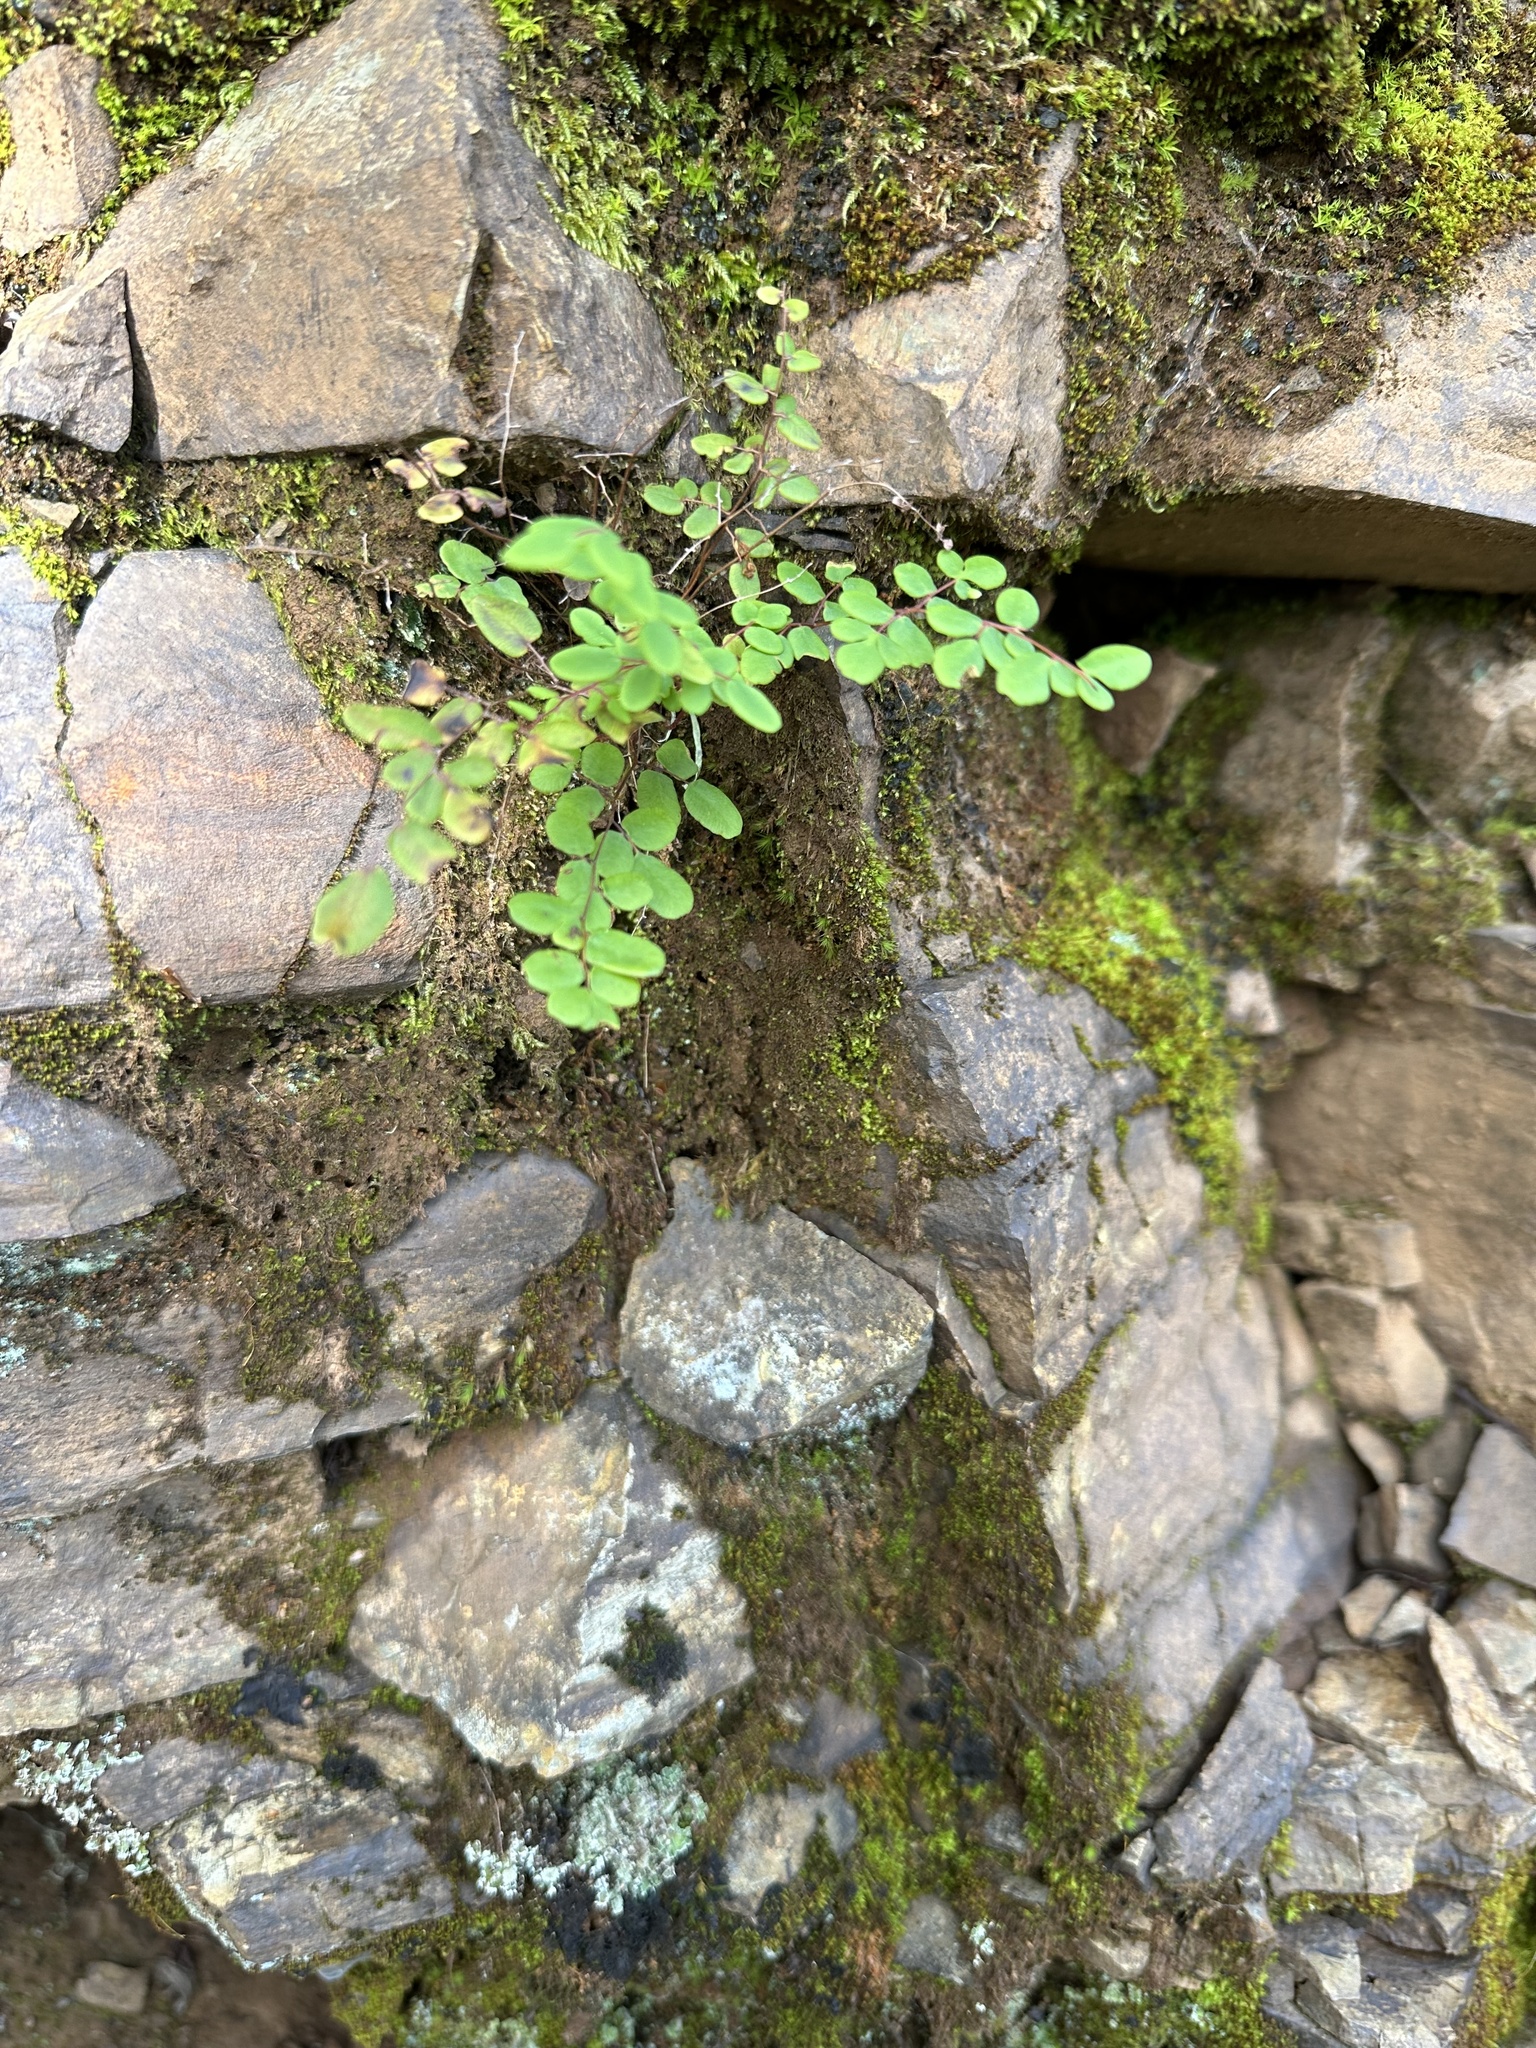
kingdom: Plantae
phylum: Tracheophyta
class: Polypodiopsida
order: Polypodiales
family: Pteridaceae
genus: Pellaea
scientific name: Pellaea andromedifolia
